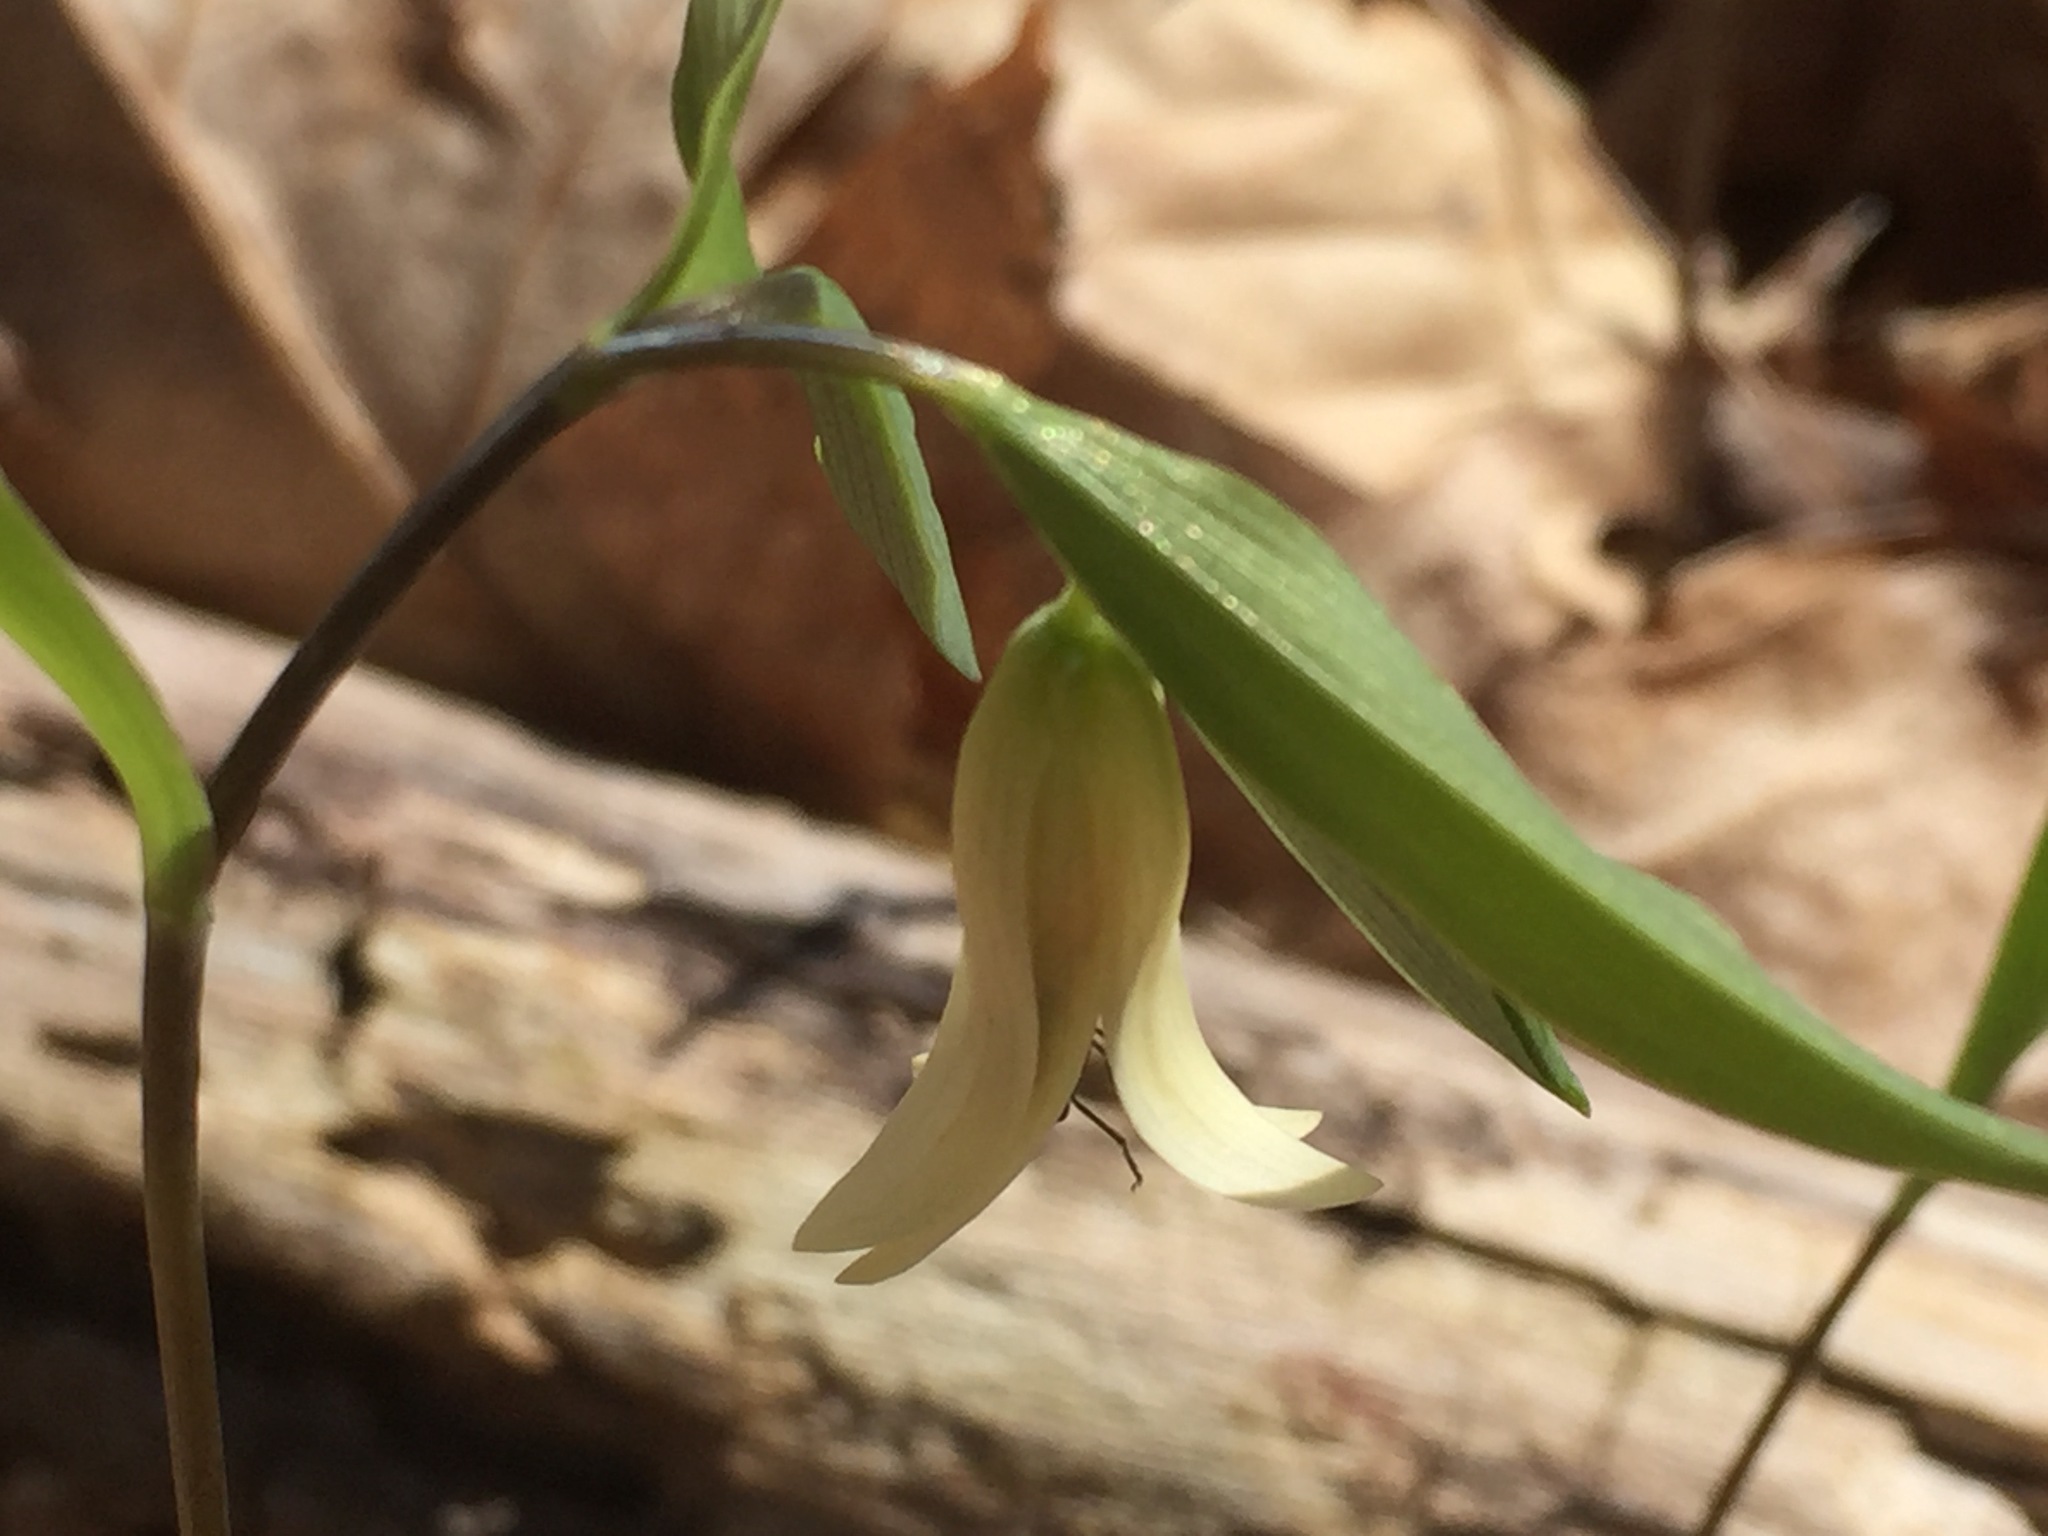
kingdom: Plantae
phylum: Tracheophyta
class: Liliopsida
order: Liliales
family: Colchicaceae
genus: Uvularia
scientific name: Uvularia sessilifolia
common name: Straw-lily
